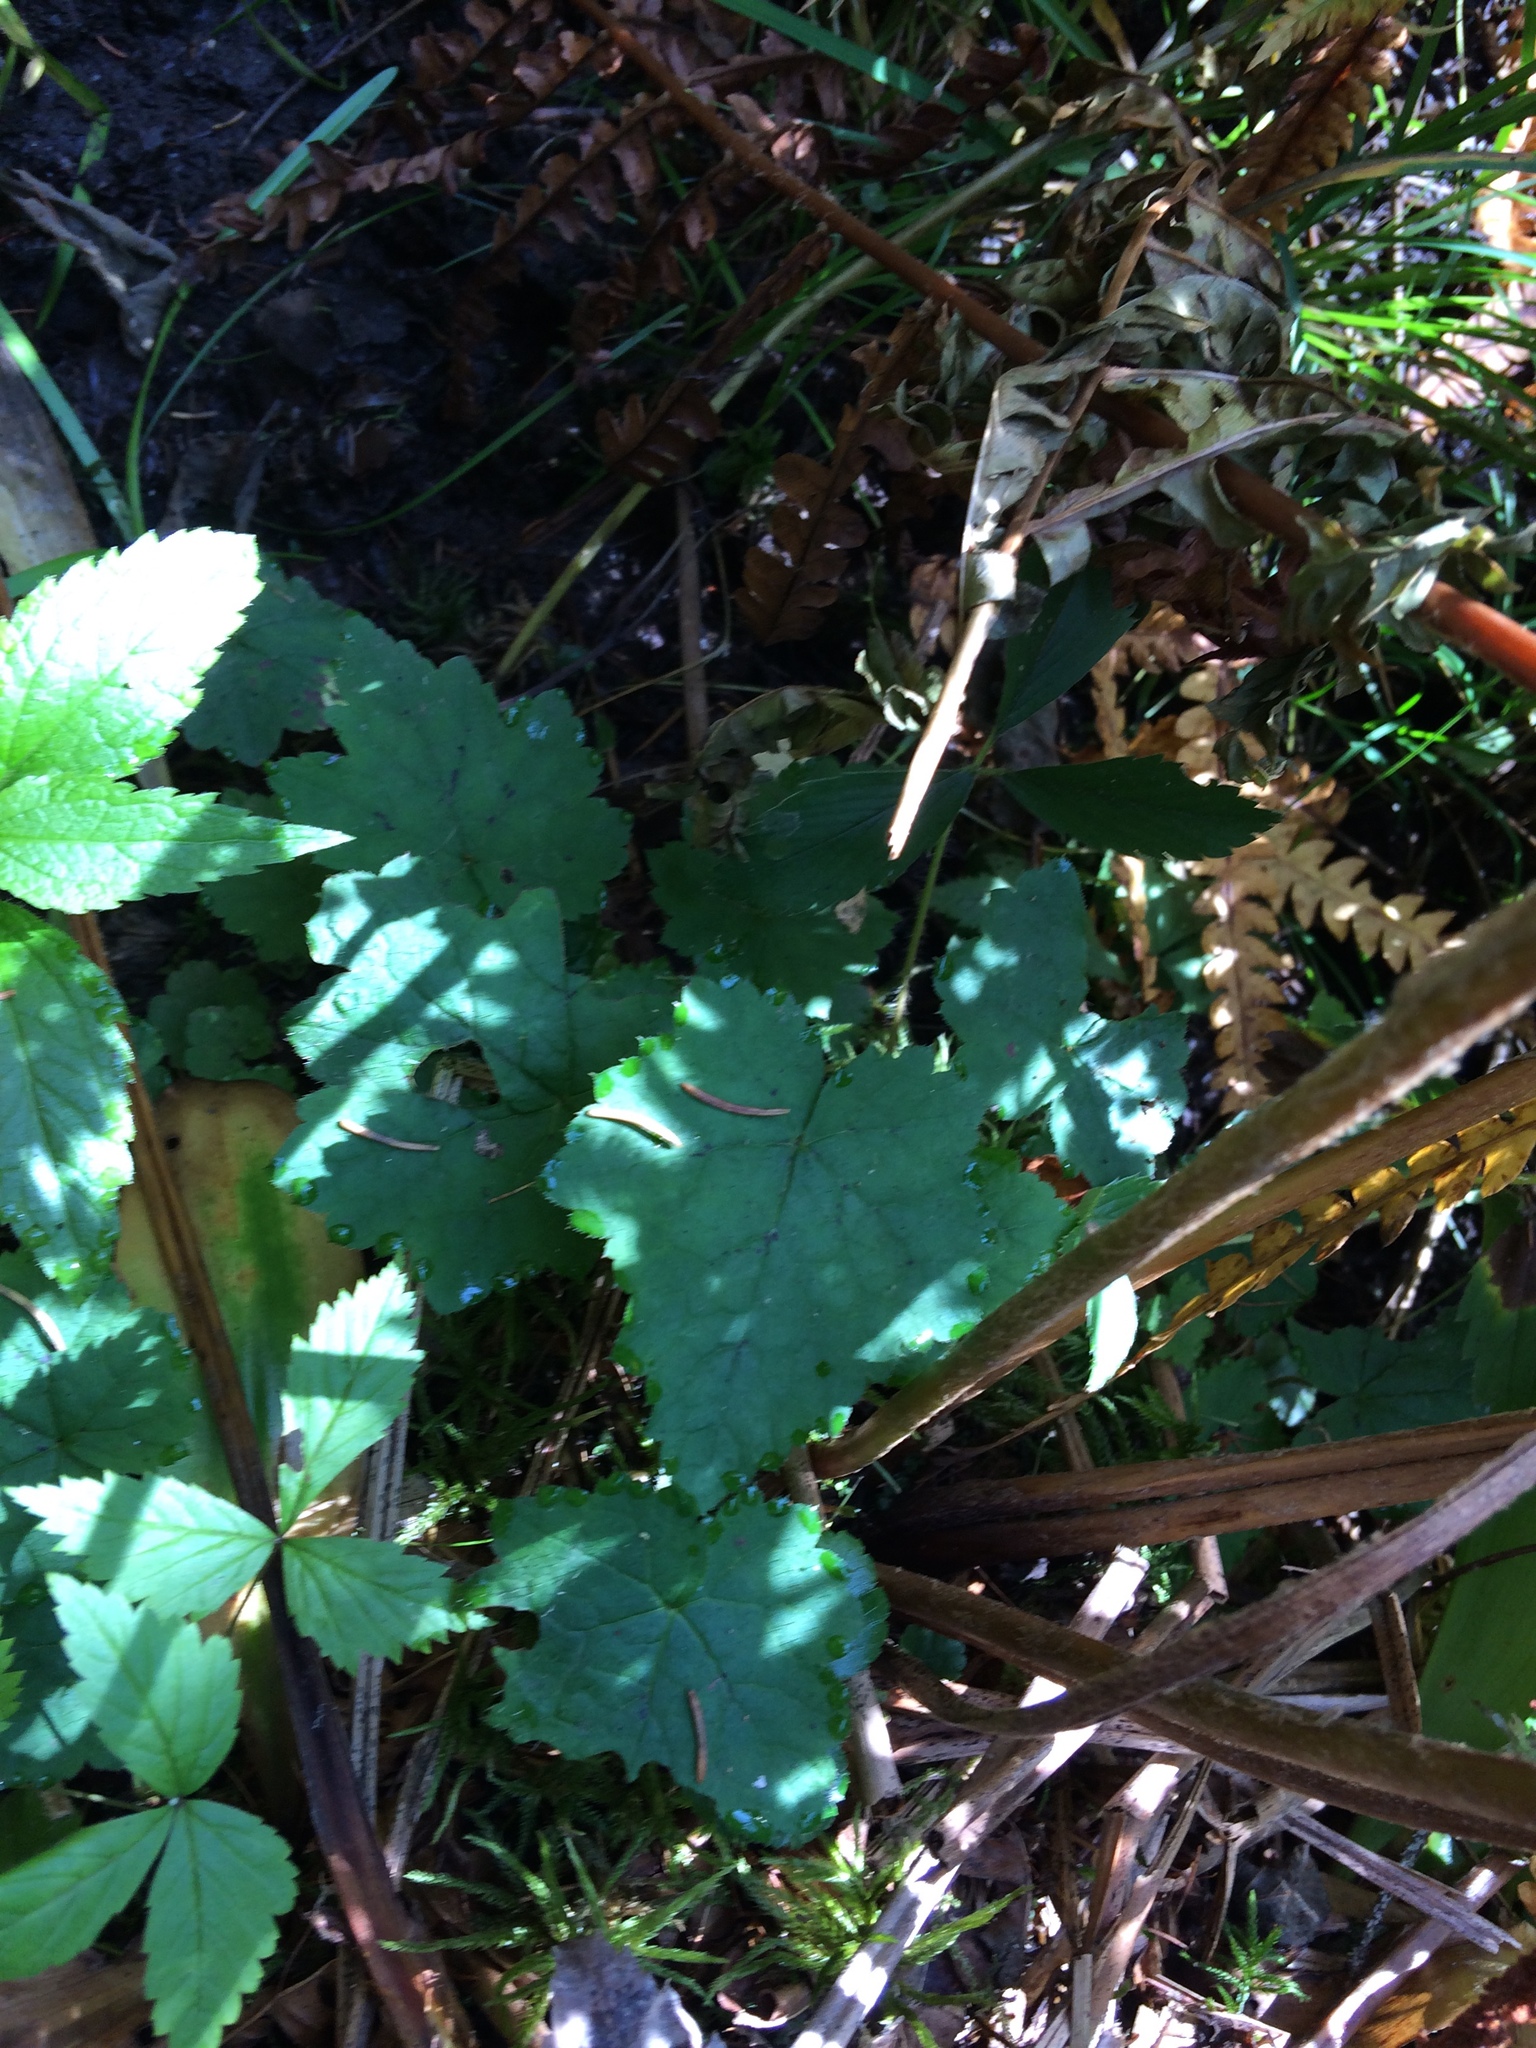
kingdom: Plantae
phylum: Tracheophyta
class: Magnoliopsida
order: Saxifragales
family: Saxifragaceae
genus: Tiarella
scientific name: Tiarella stolonifera
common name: Stoloniferous foamflower
